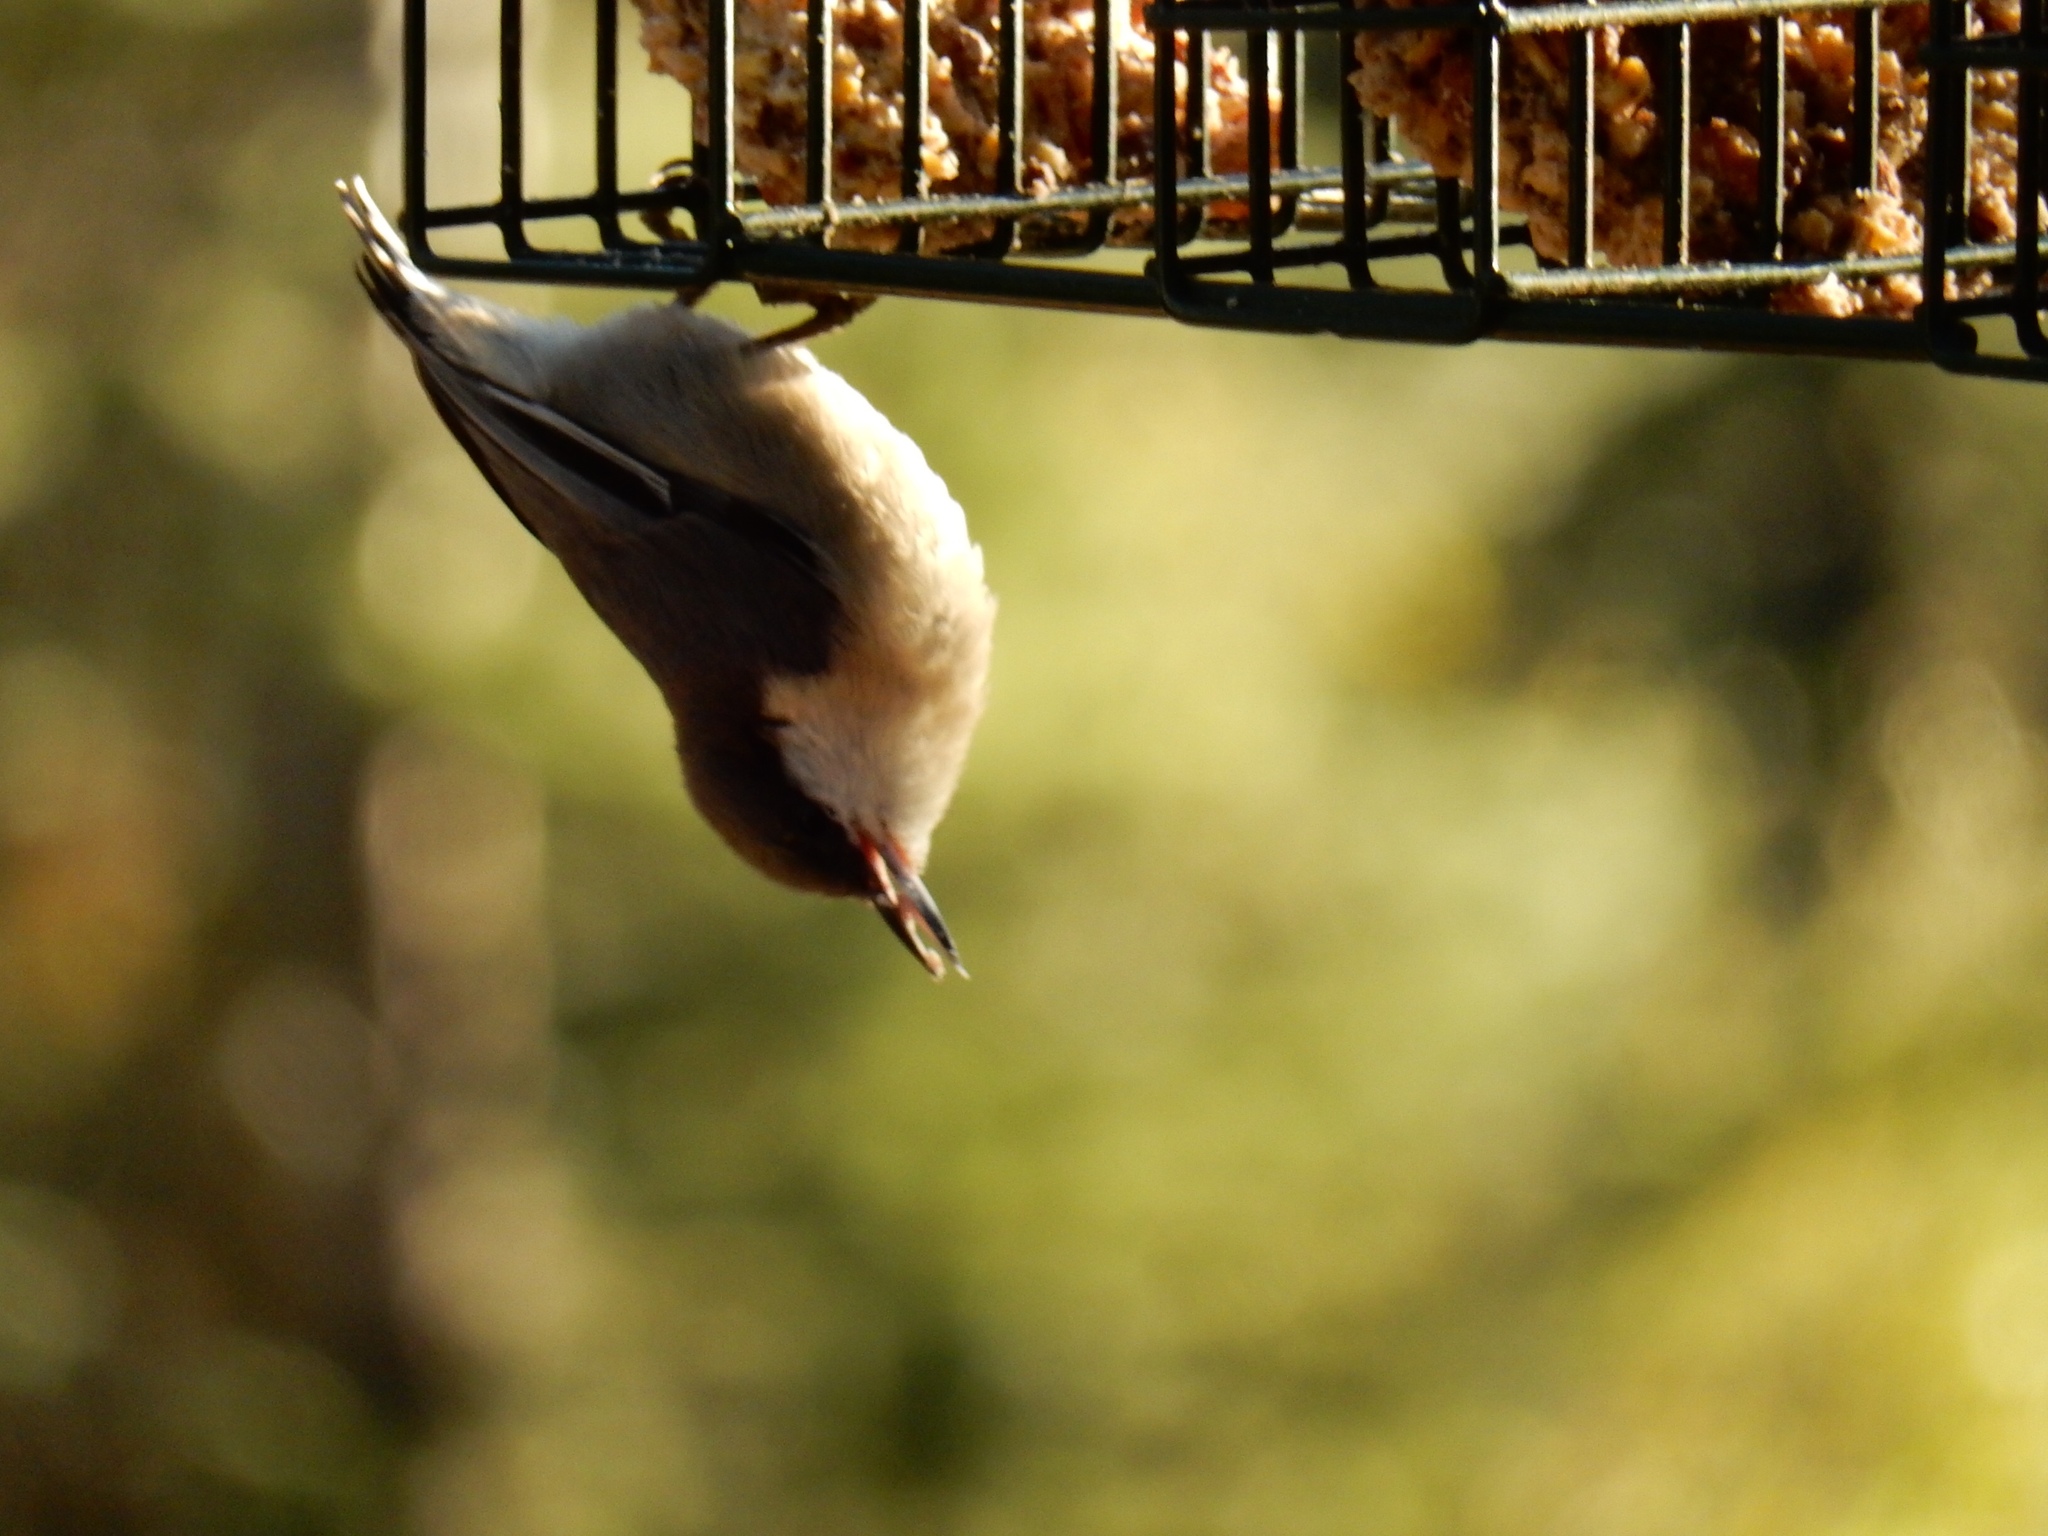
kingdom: Animalia
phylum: Chordata
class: Aves
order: Passeriformes
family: Sittidae
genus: Sitta
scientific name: Sitta pygmaea
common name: Pygmy nuthatch
